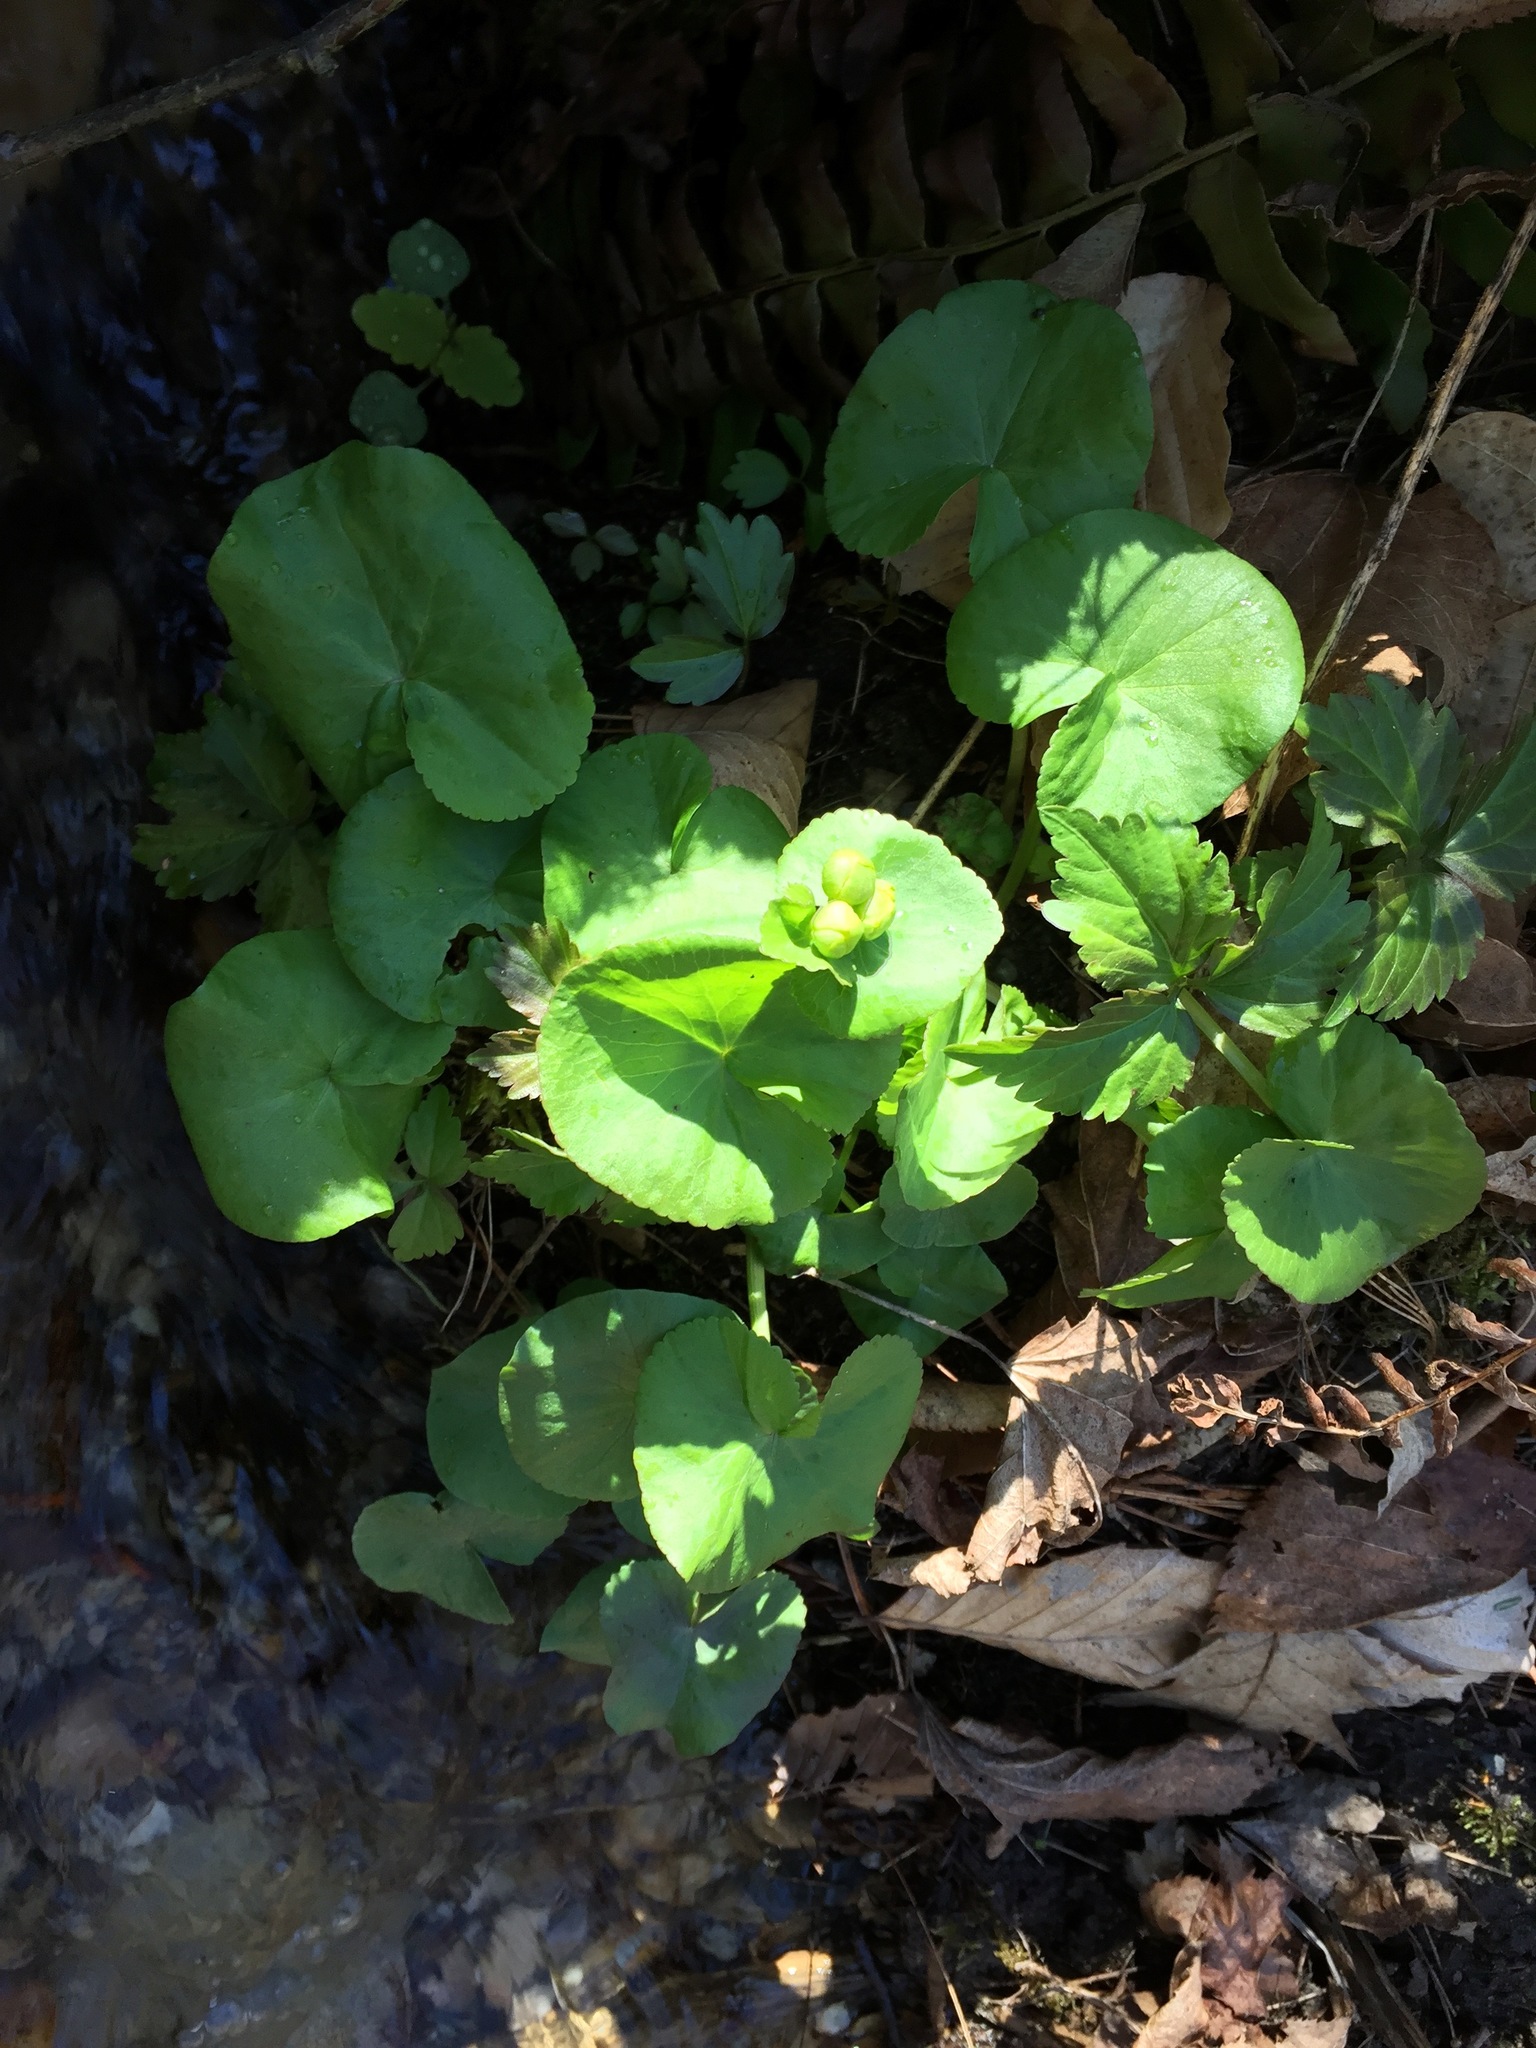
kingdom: Plantae
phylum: Tracheophyta
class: Magnoliopsida
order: Ranunculales
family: Ranunculaceae
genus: Caltha
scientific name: Caltha palustris
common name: Marsh marigold
